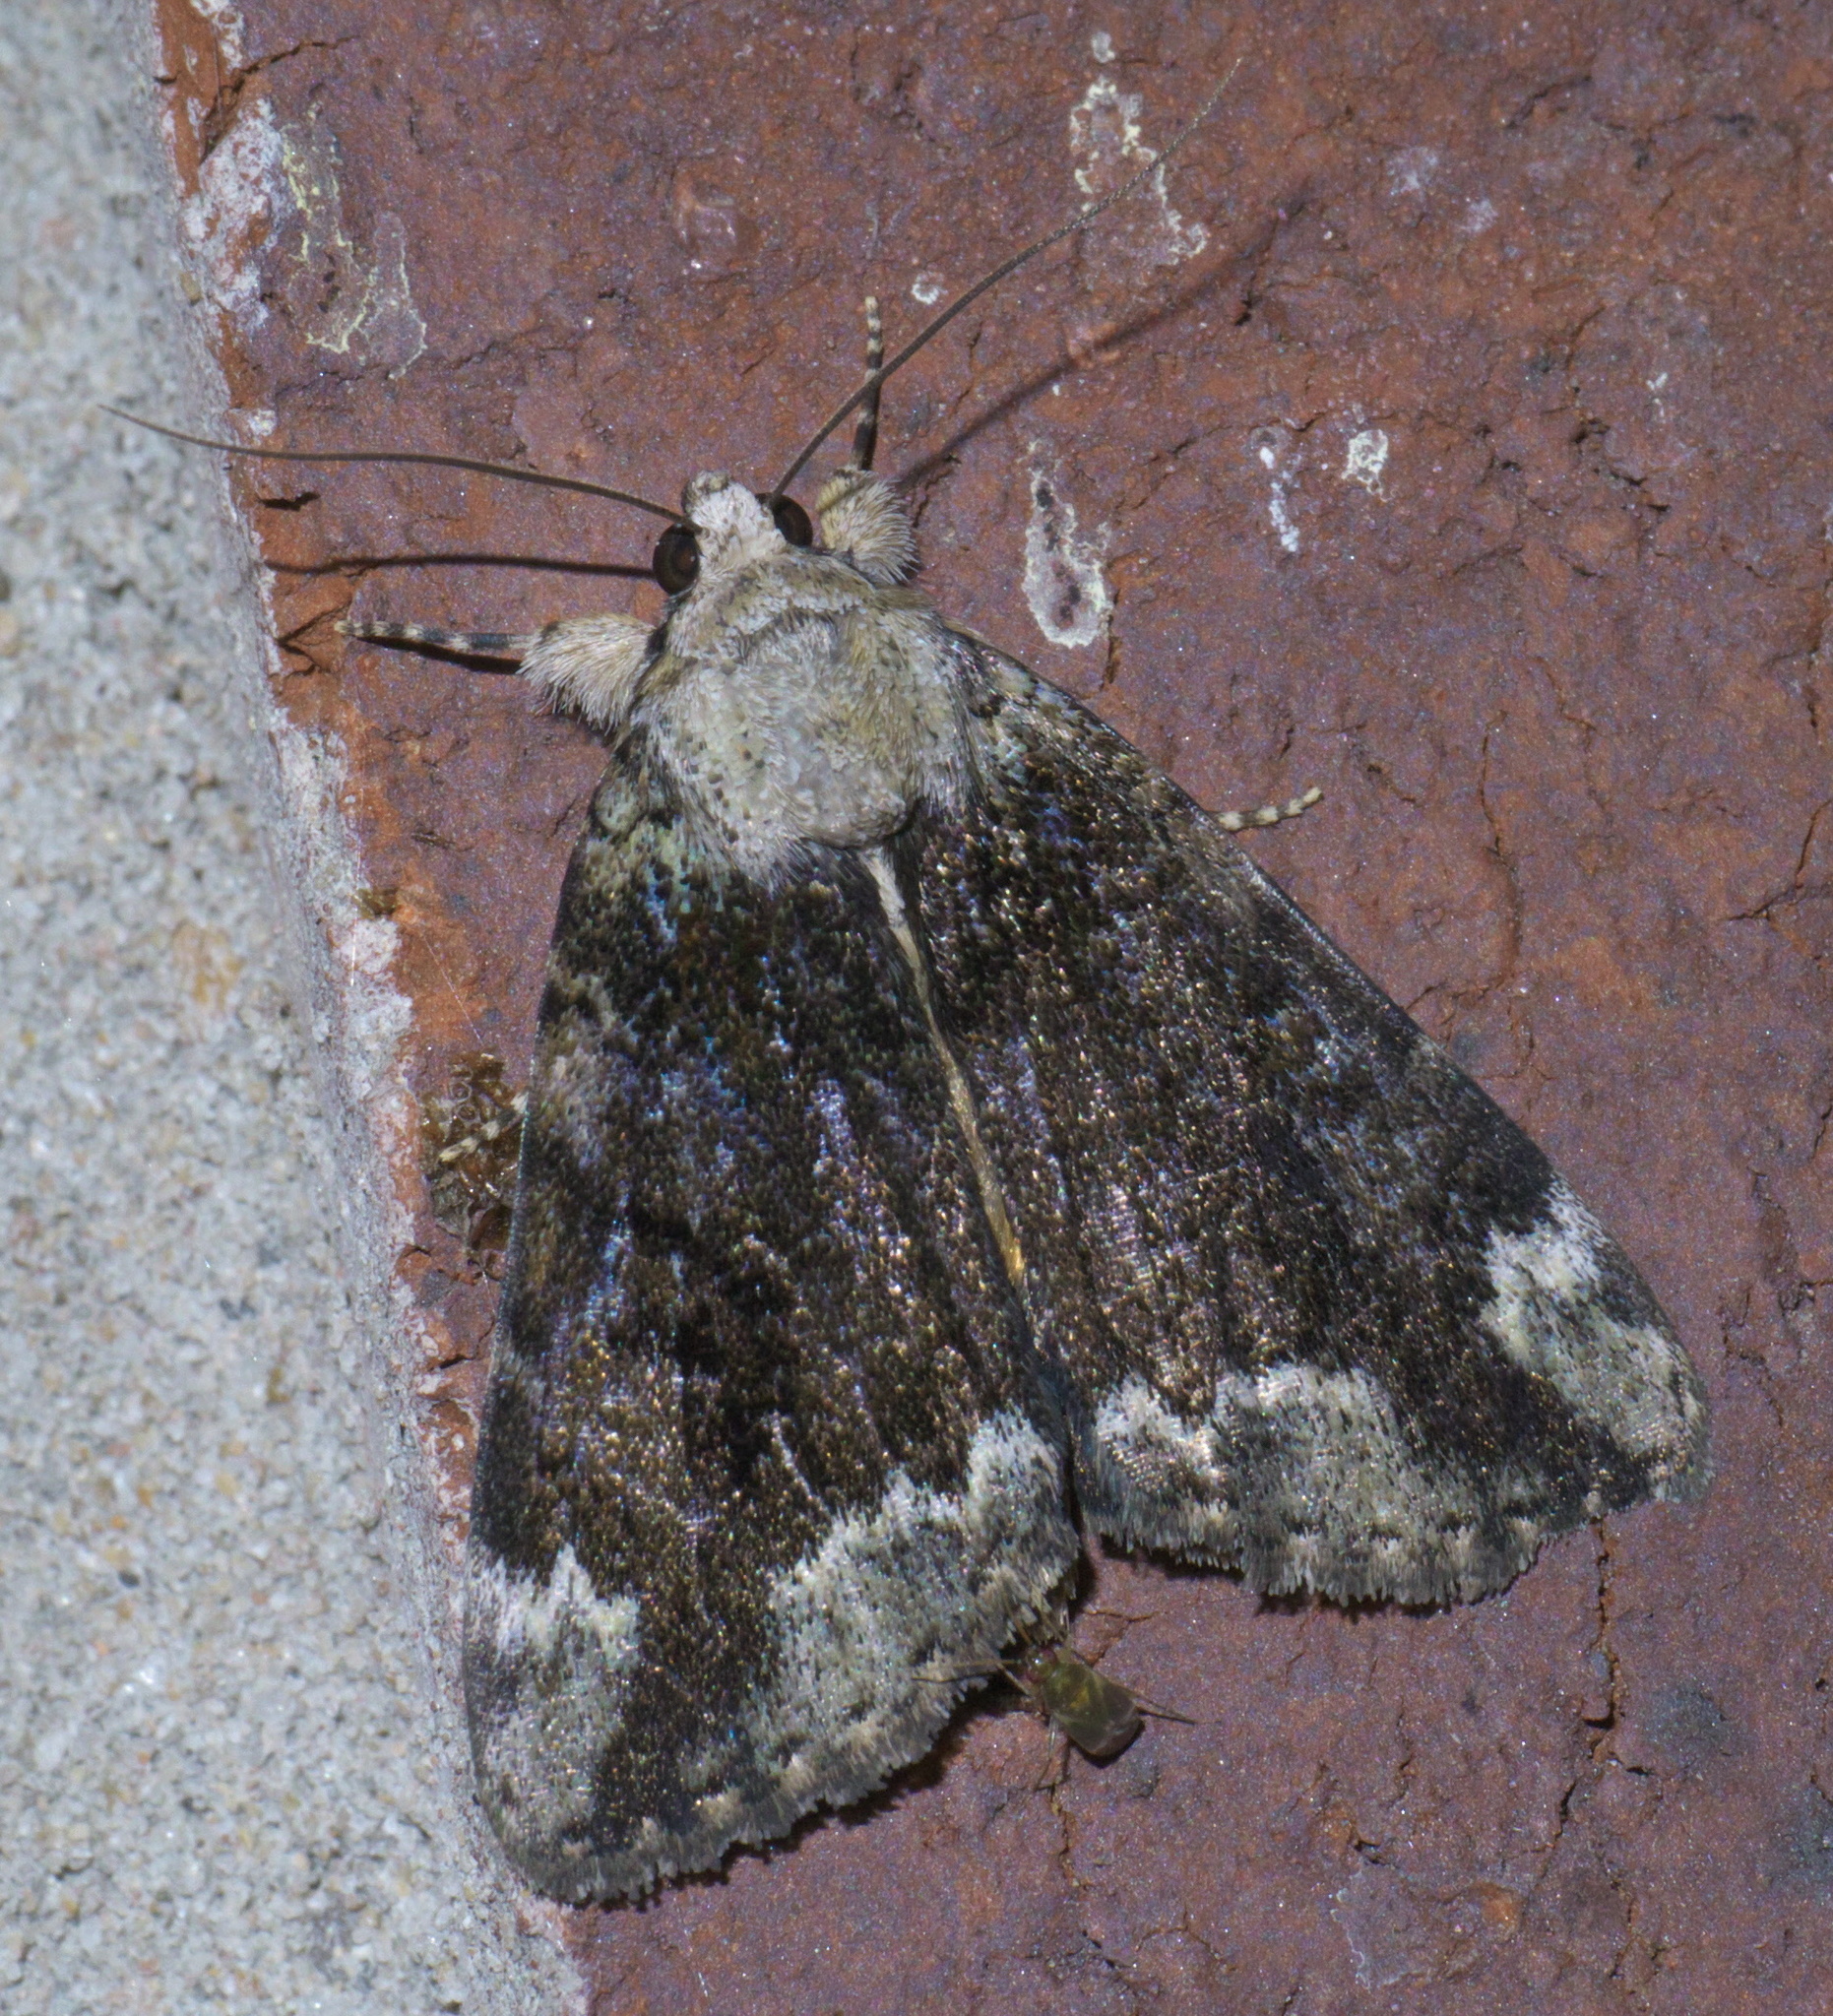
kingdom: Animalia
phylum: Arthropoda
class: Insecta
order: Lepidoptera
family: Erebidae
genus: Catocala
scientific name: Catocala micronympha
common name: Little nymph underwing
